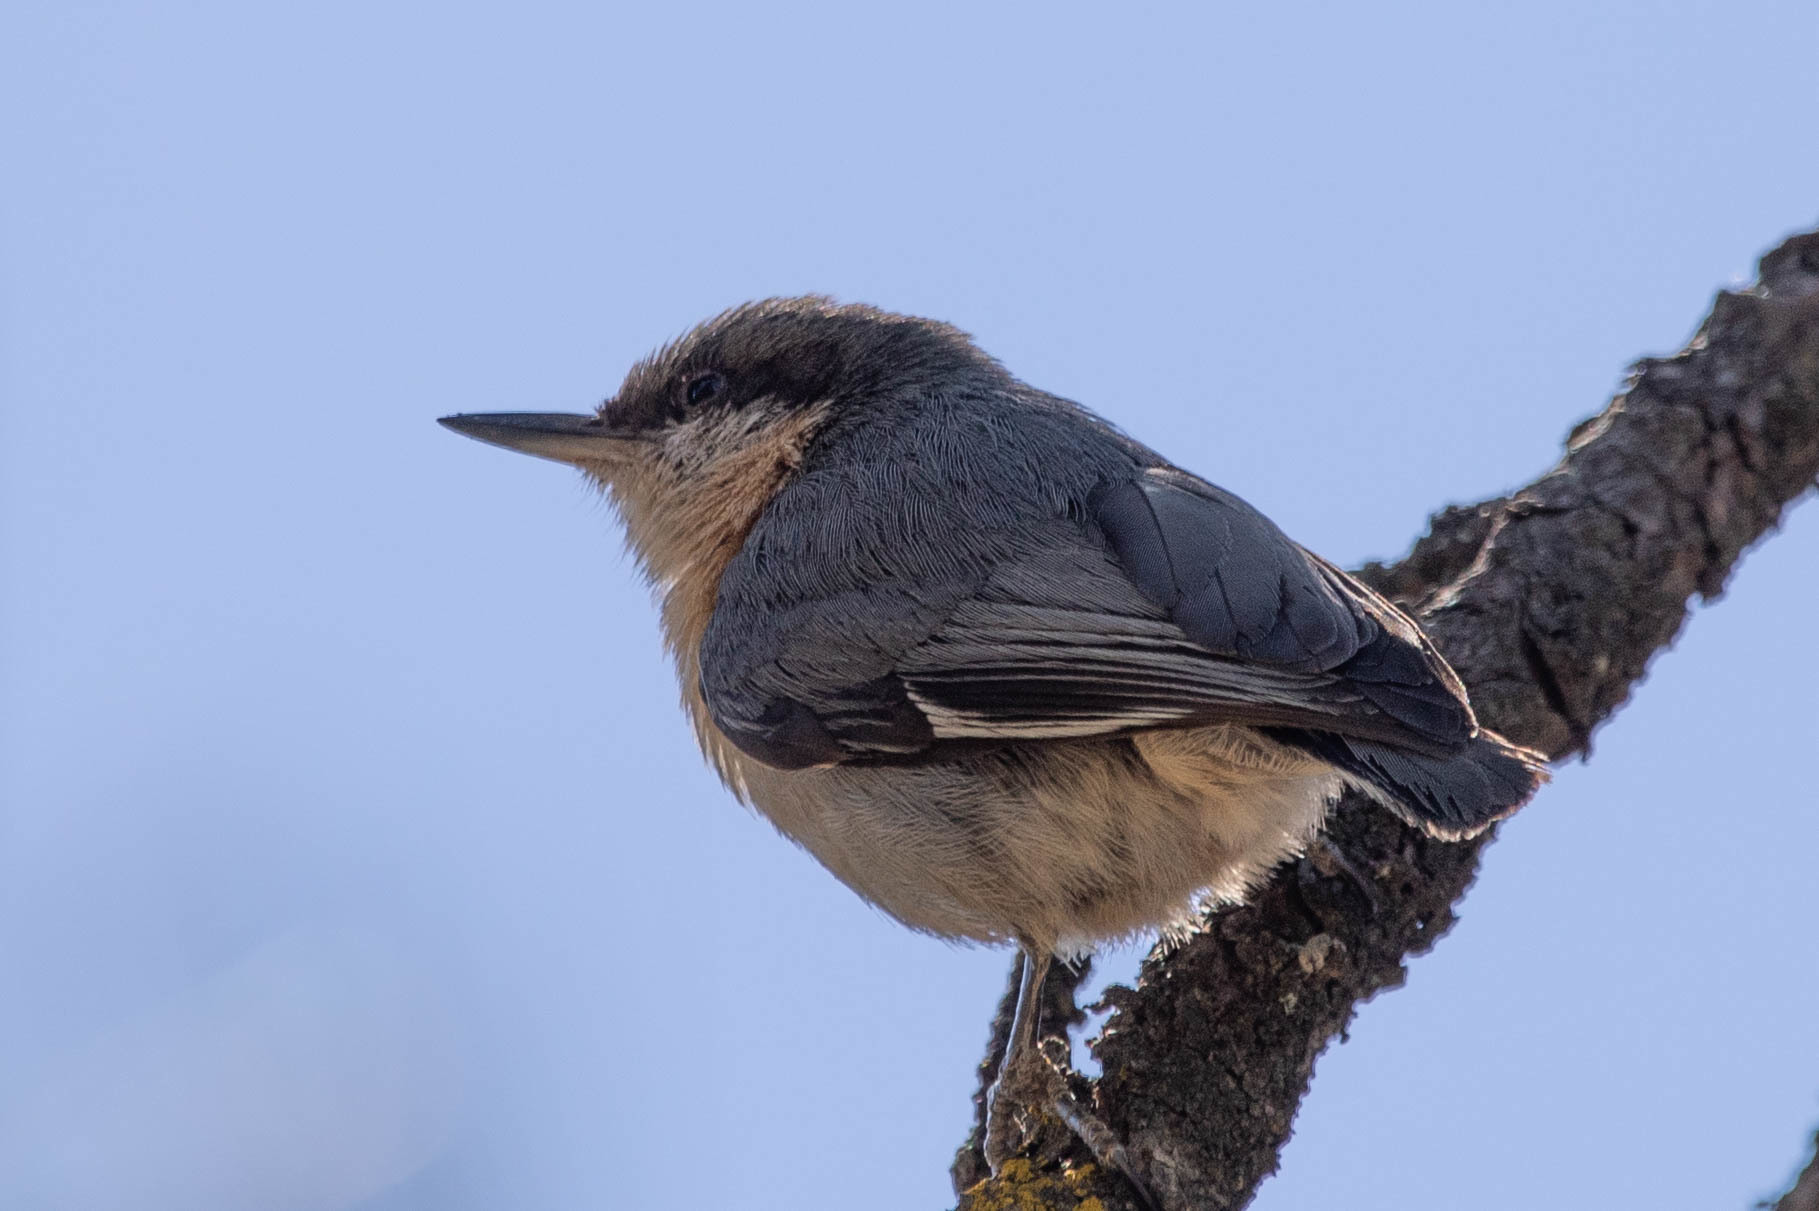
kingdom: Animalia
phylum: Chordata
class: Aves
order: Passeriformes
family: Sittidae
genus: Sitta
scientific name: Sitta pygmaea
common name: Pygmy nuthatch
